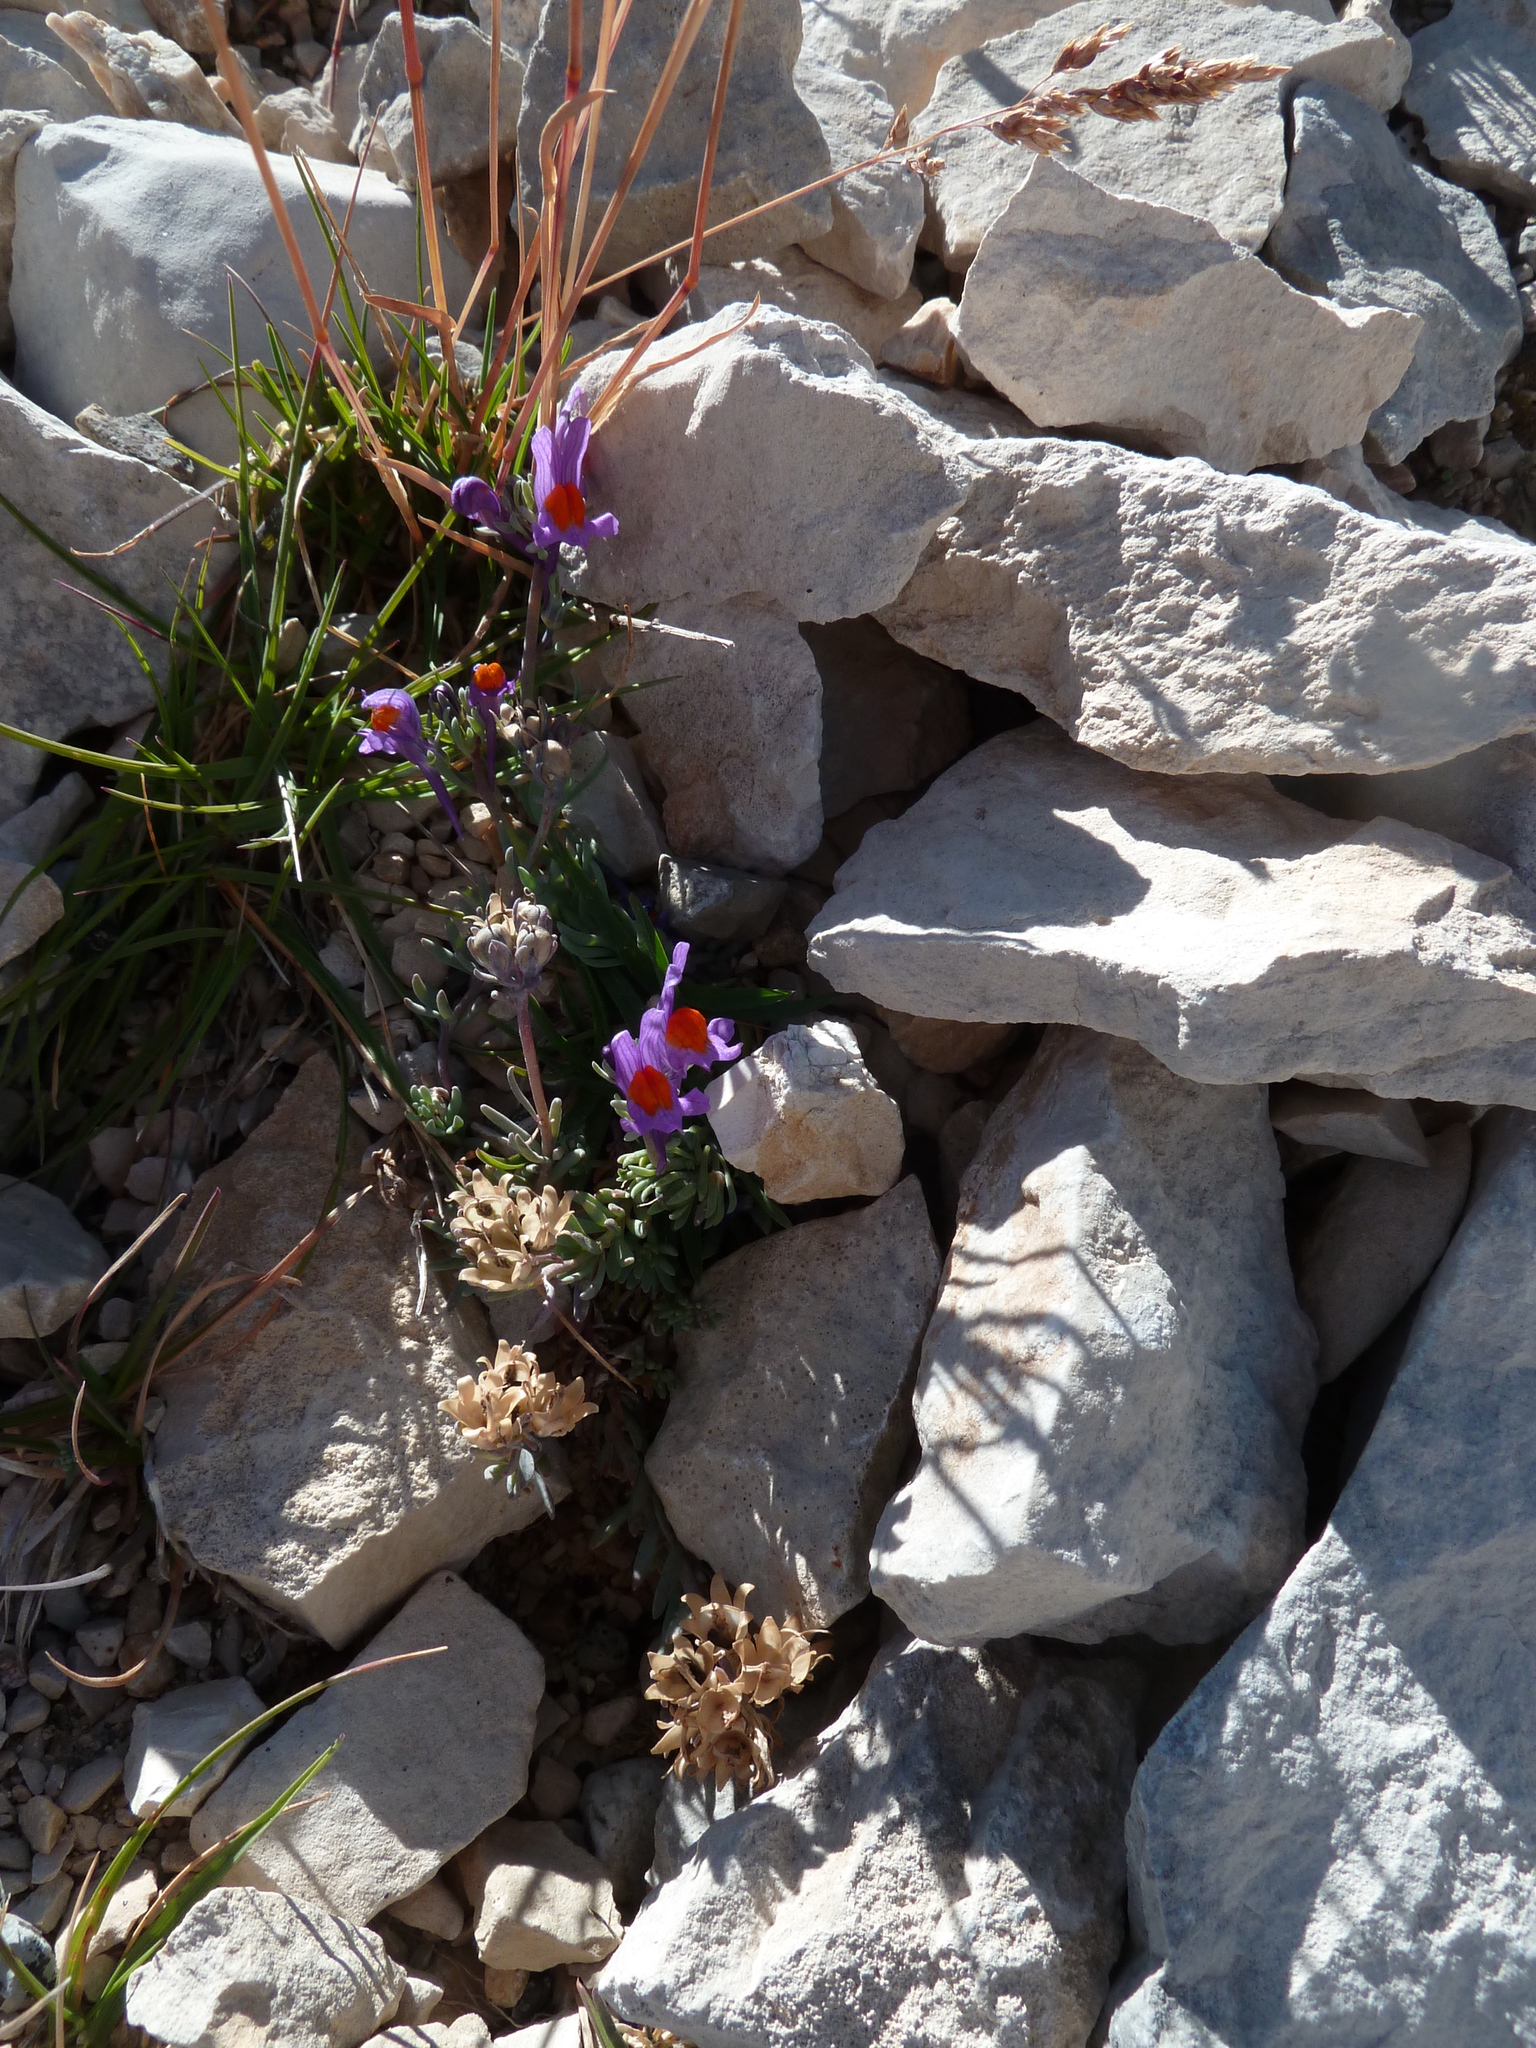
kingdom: Plantae
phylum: Tracheophyta
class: Magnoliopsida
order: Lamiales
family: Plantaginaceae
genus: Linaria
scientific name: Linaria alpina
